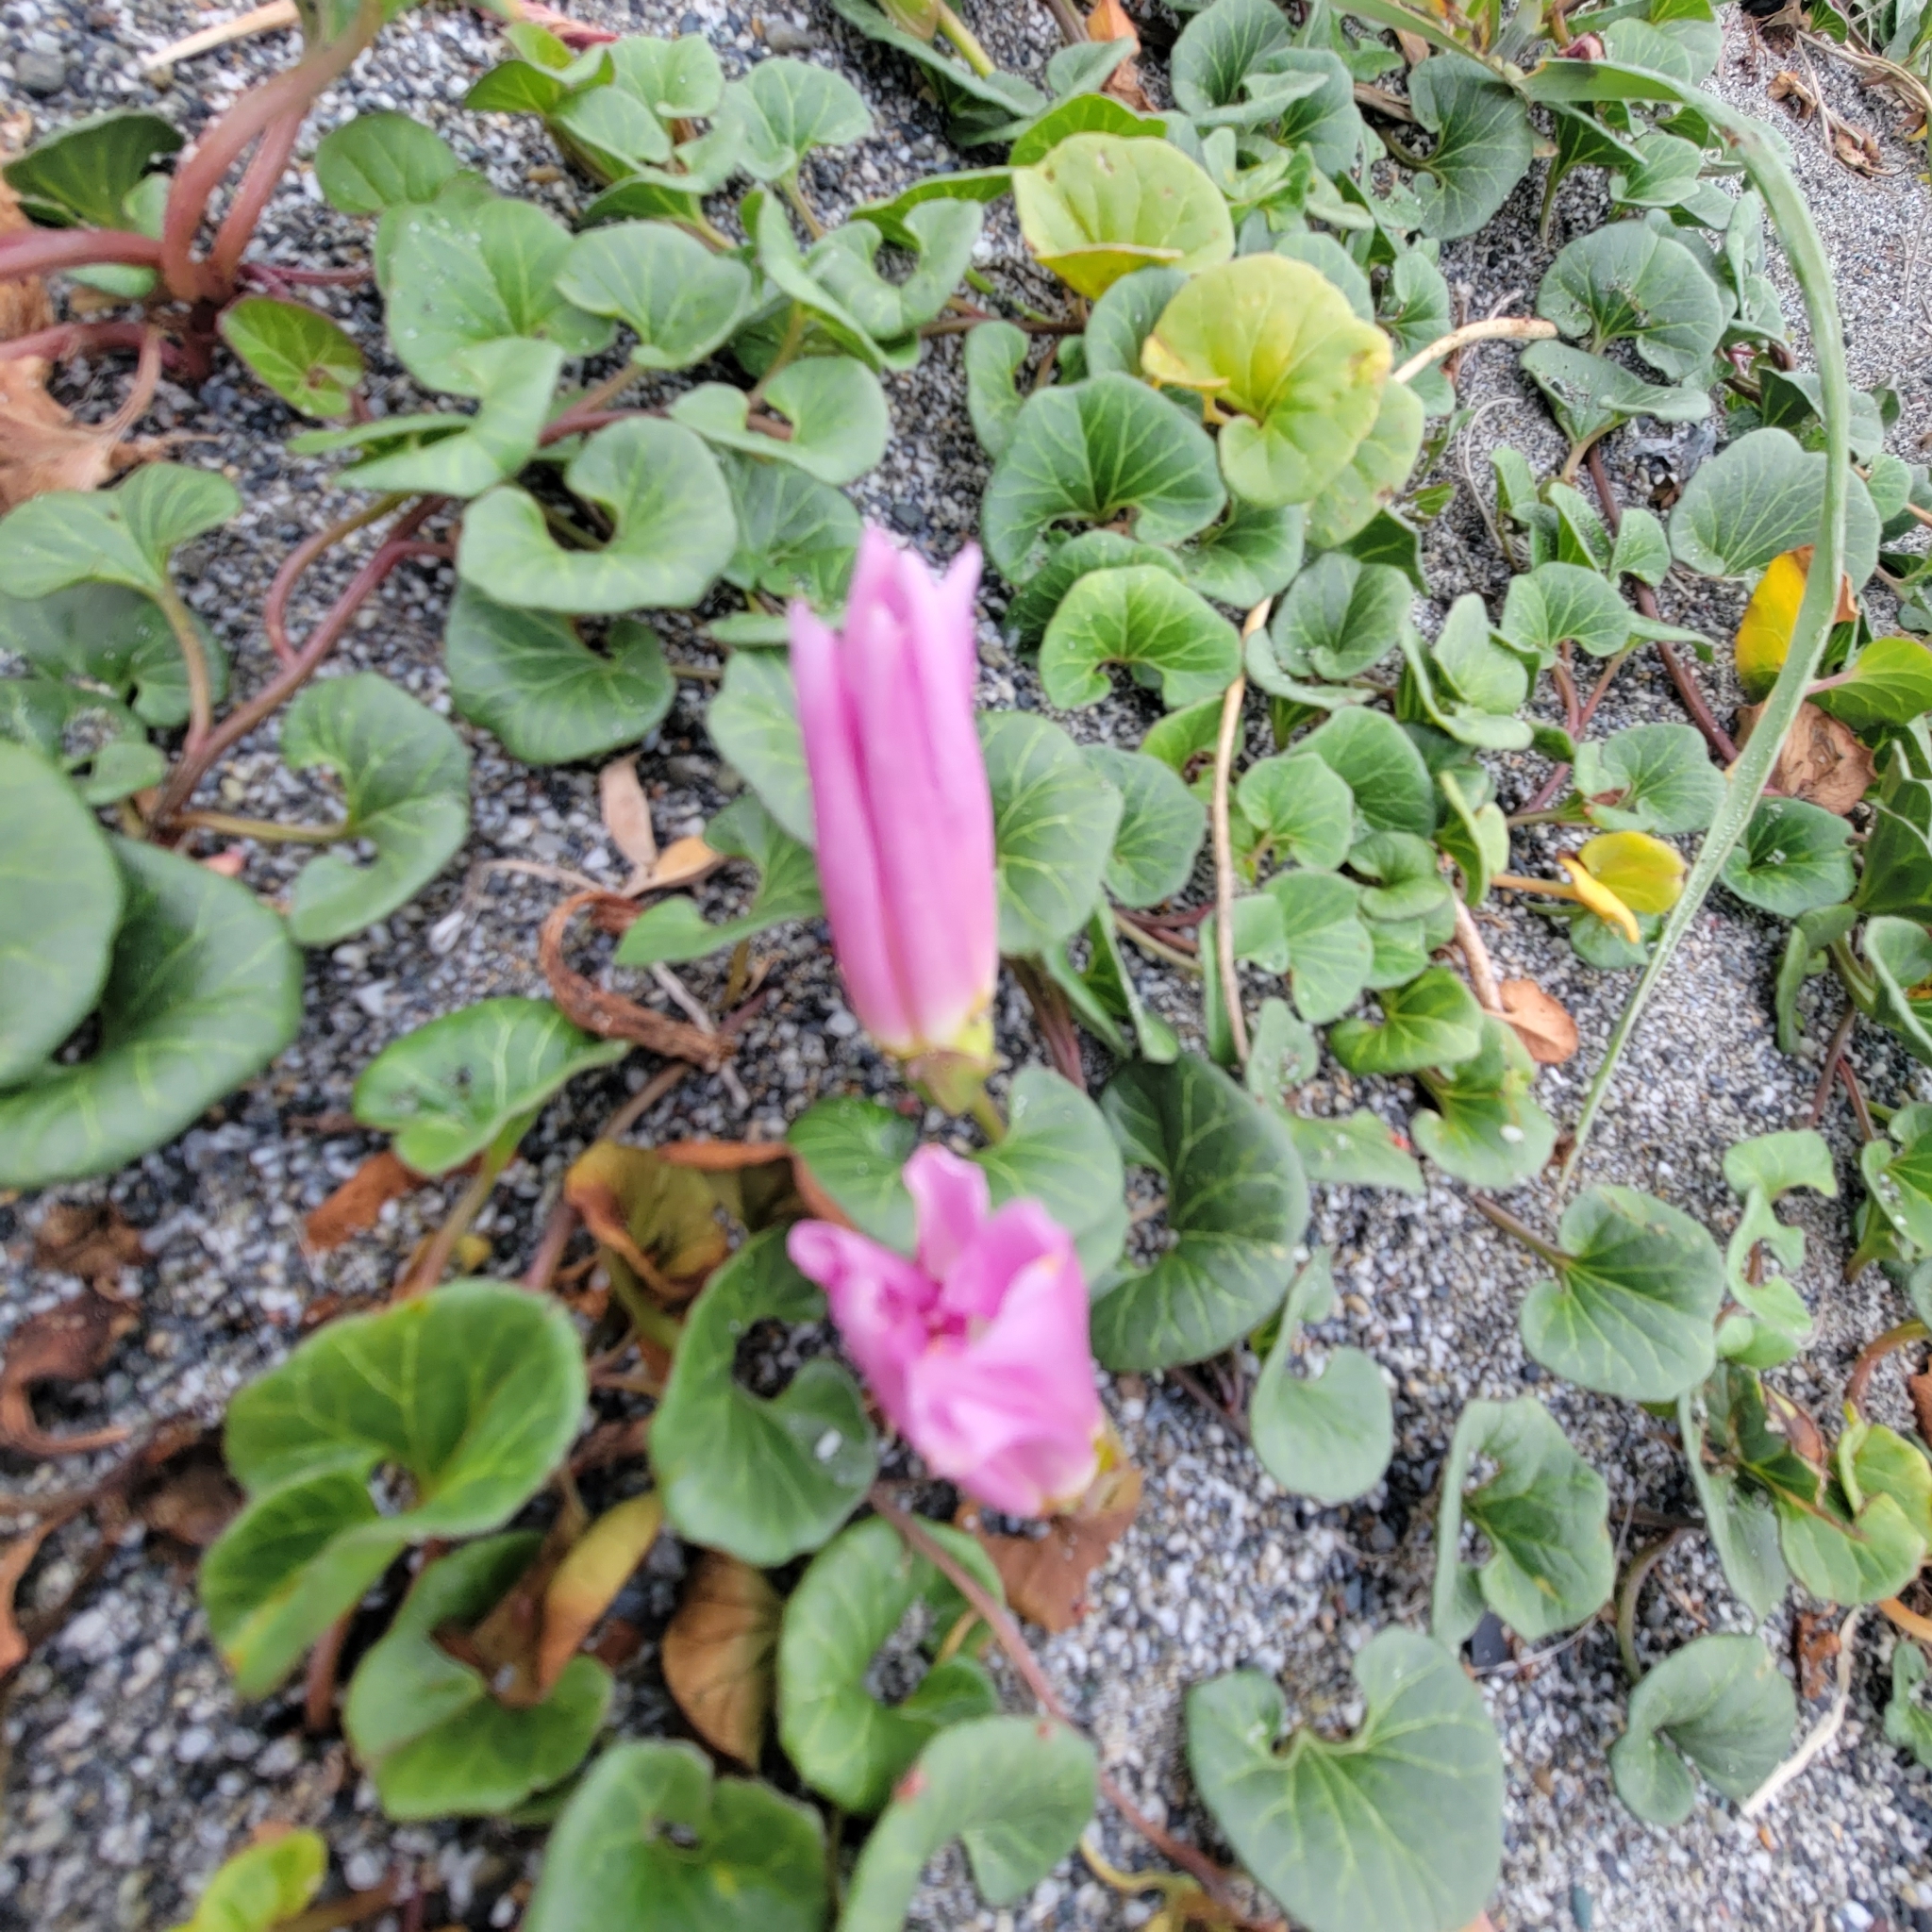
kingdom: Plantae
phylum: Tracheophyta
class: Magnoliopsida
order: Solanales
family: Convolvulaceae
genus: Calystegia
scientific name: Calystegia soldanella
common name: Sea bindweed
